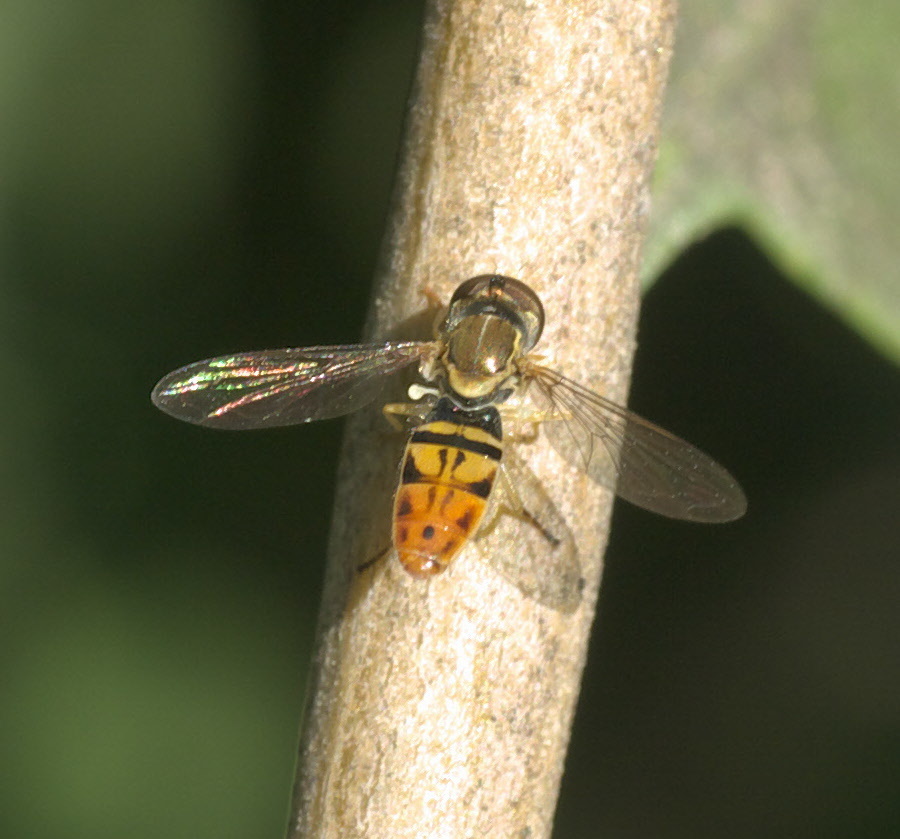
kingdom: Animalia
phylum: Arthropoda
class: Insecta
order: Diptera
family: Syrphidae
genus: Toxomerus
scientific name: Toxomerus marginatus
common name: Syrphid fly
